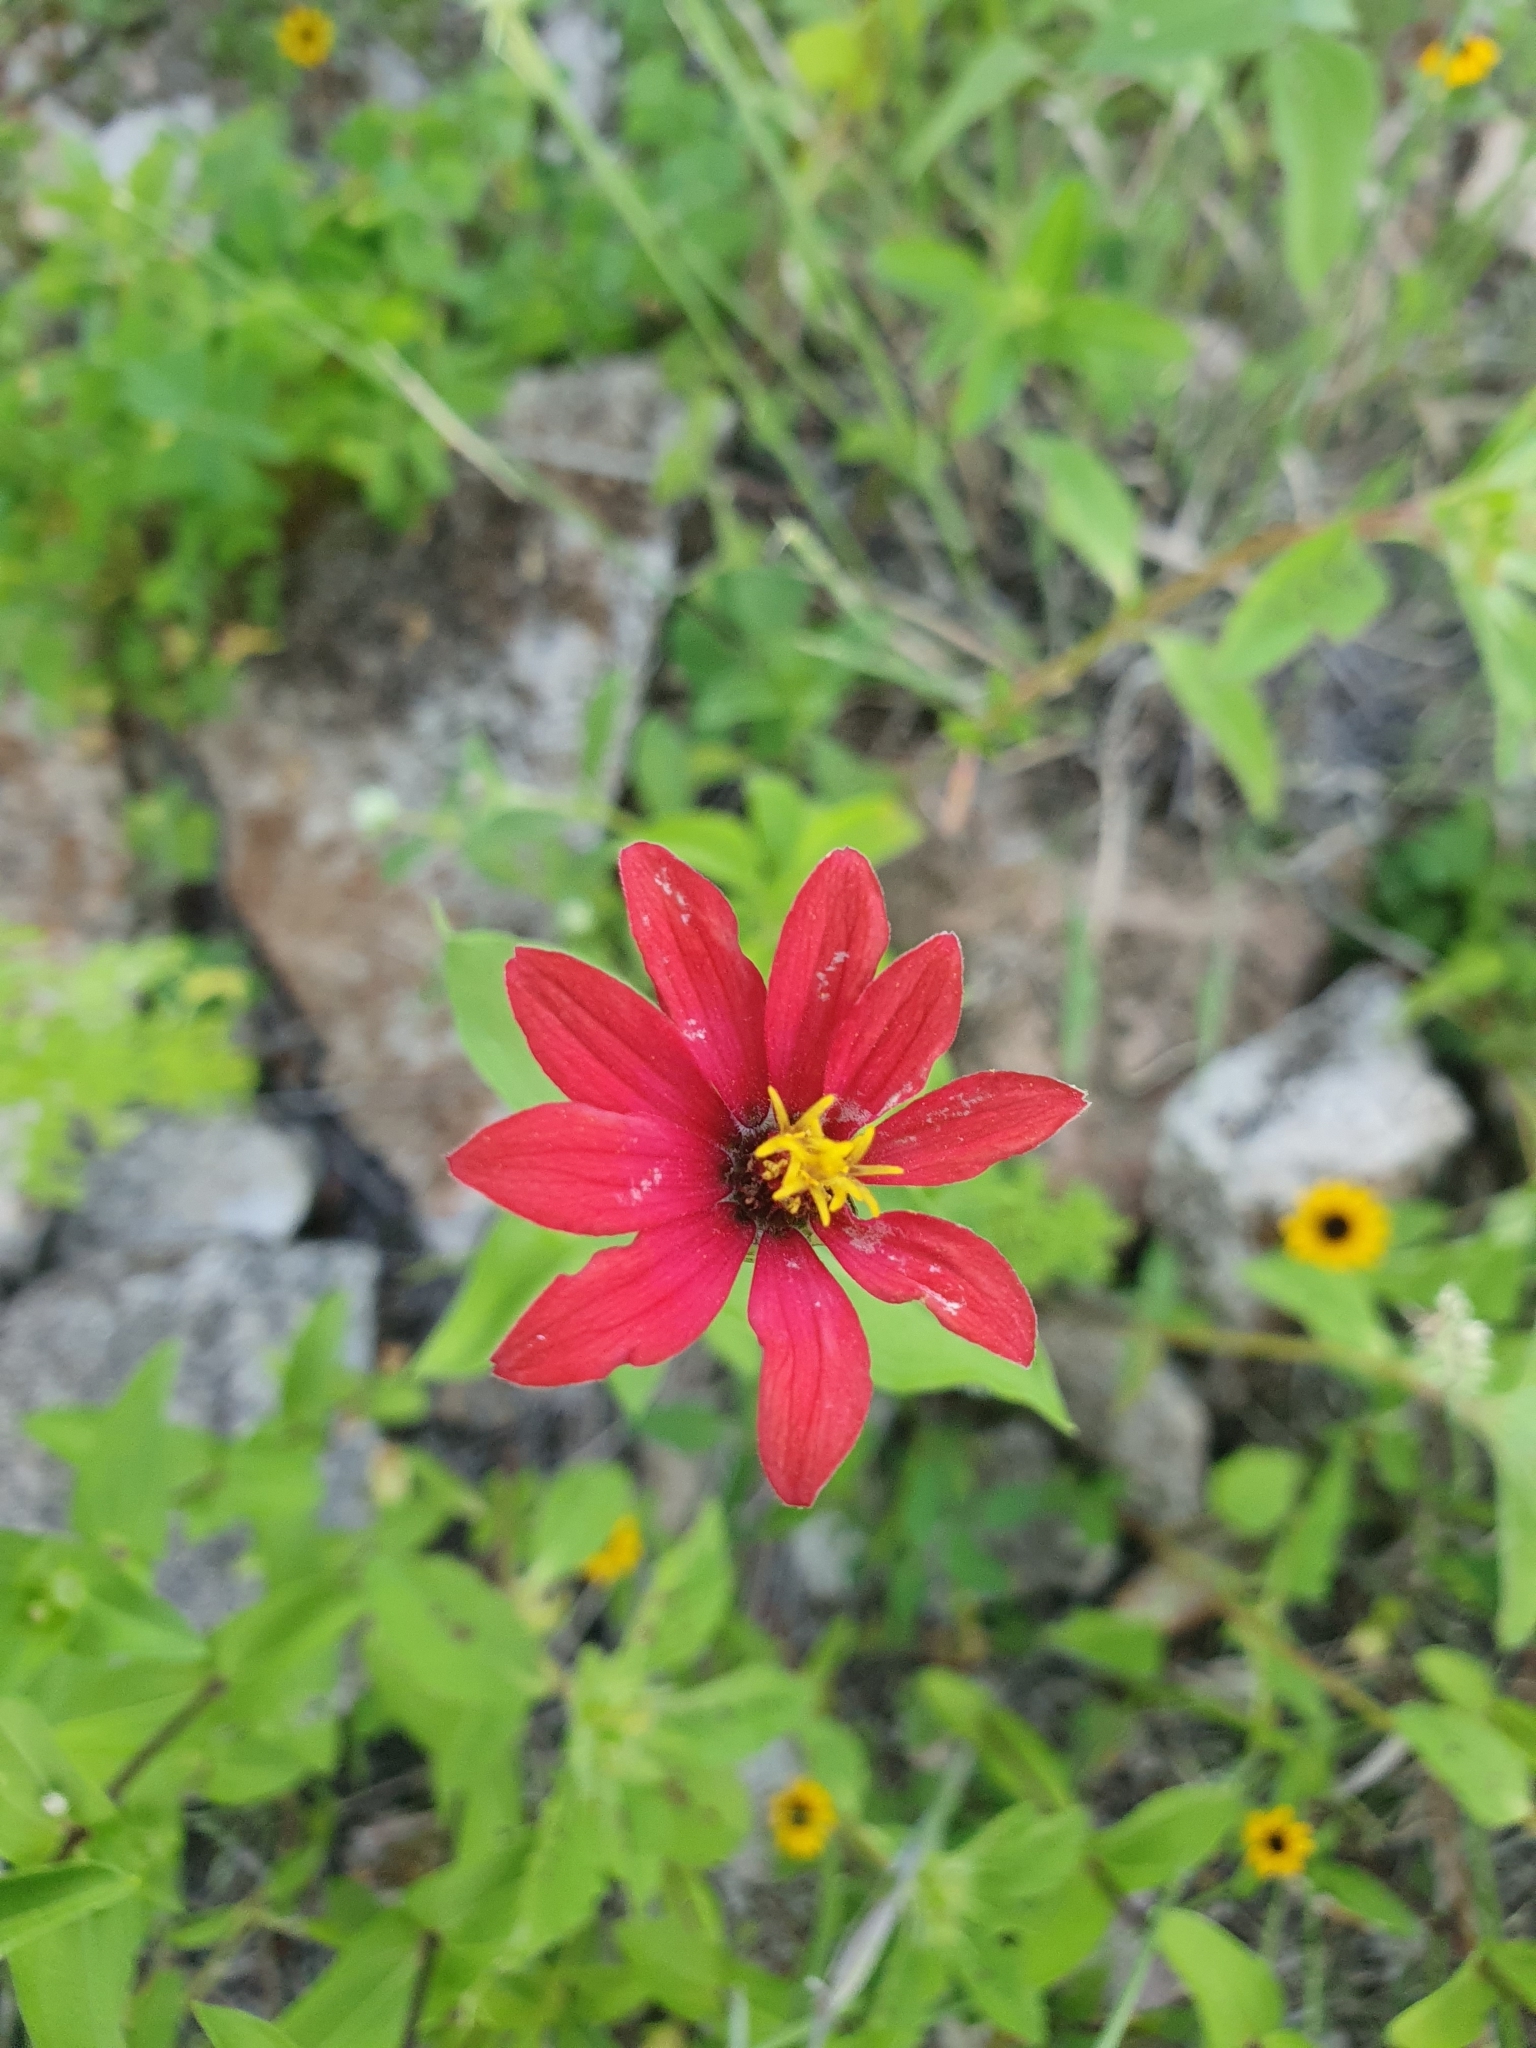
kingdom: Plantae
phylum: Tracheophyta
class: Magnoliopsida
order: Asterales
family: Asteraceae
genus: Zinnia
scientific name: Zinnia peruviana
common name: Peruvian zinnia
